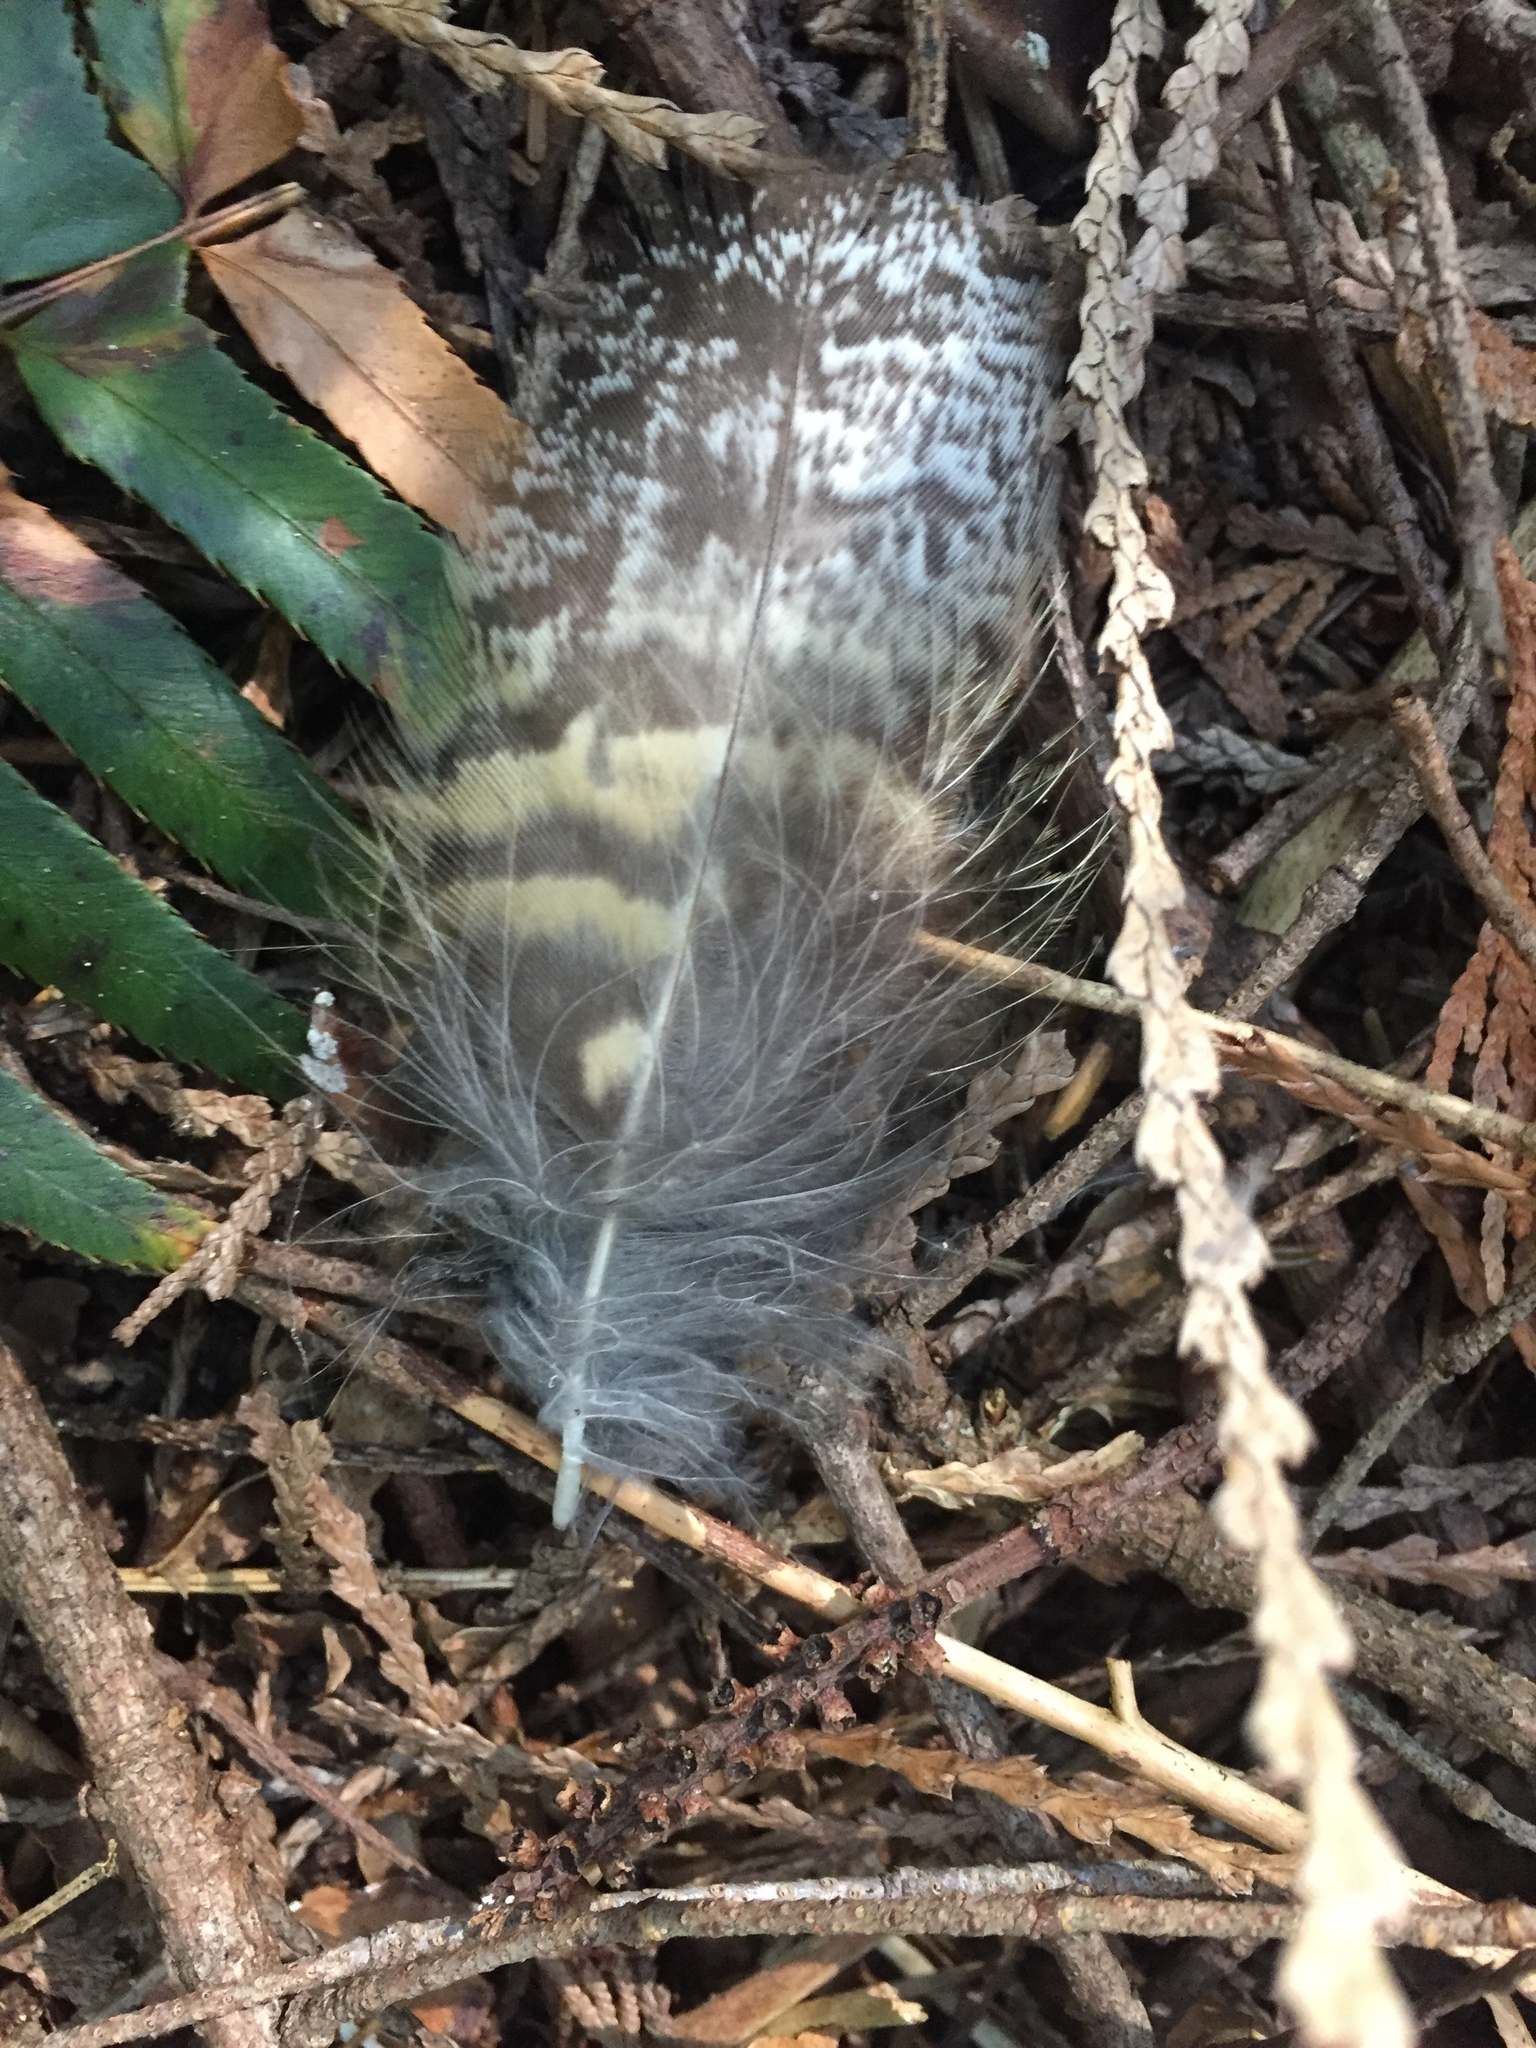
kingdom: Animalia
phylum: Chordata
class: Aves
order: Strigiformes
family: Strigidae
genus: Bubo
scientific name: Bubo virginianus
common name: Great horned owl
